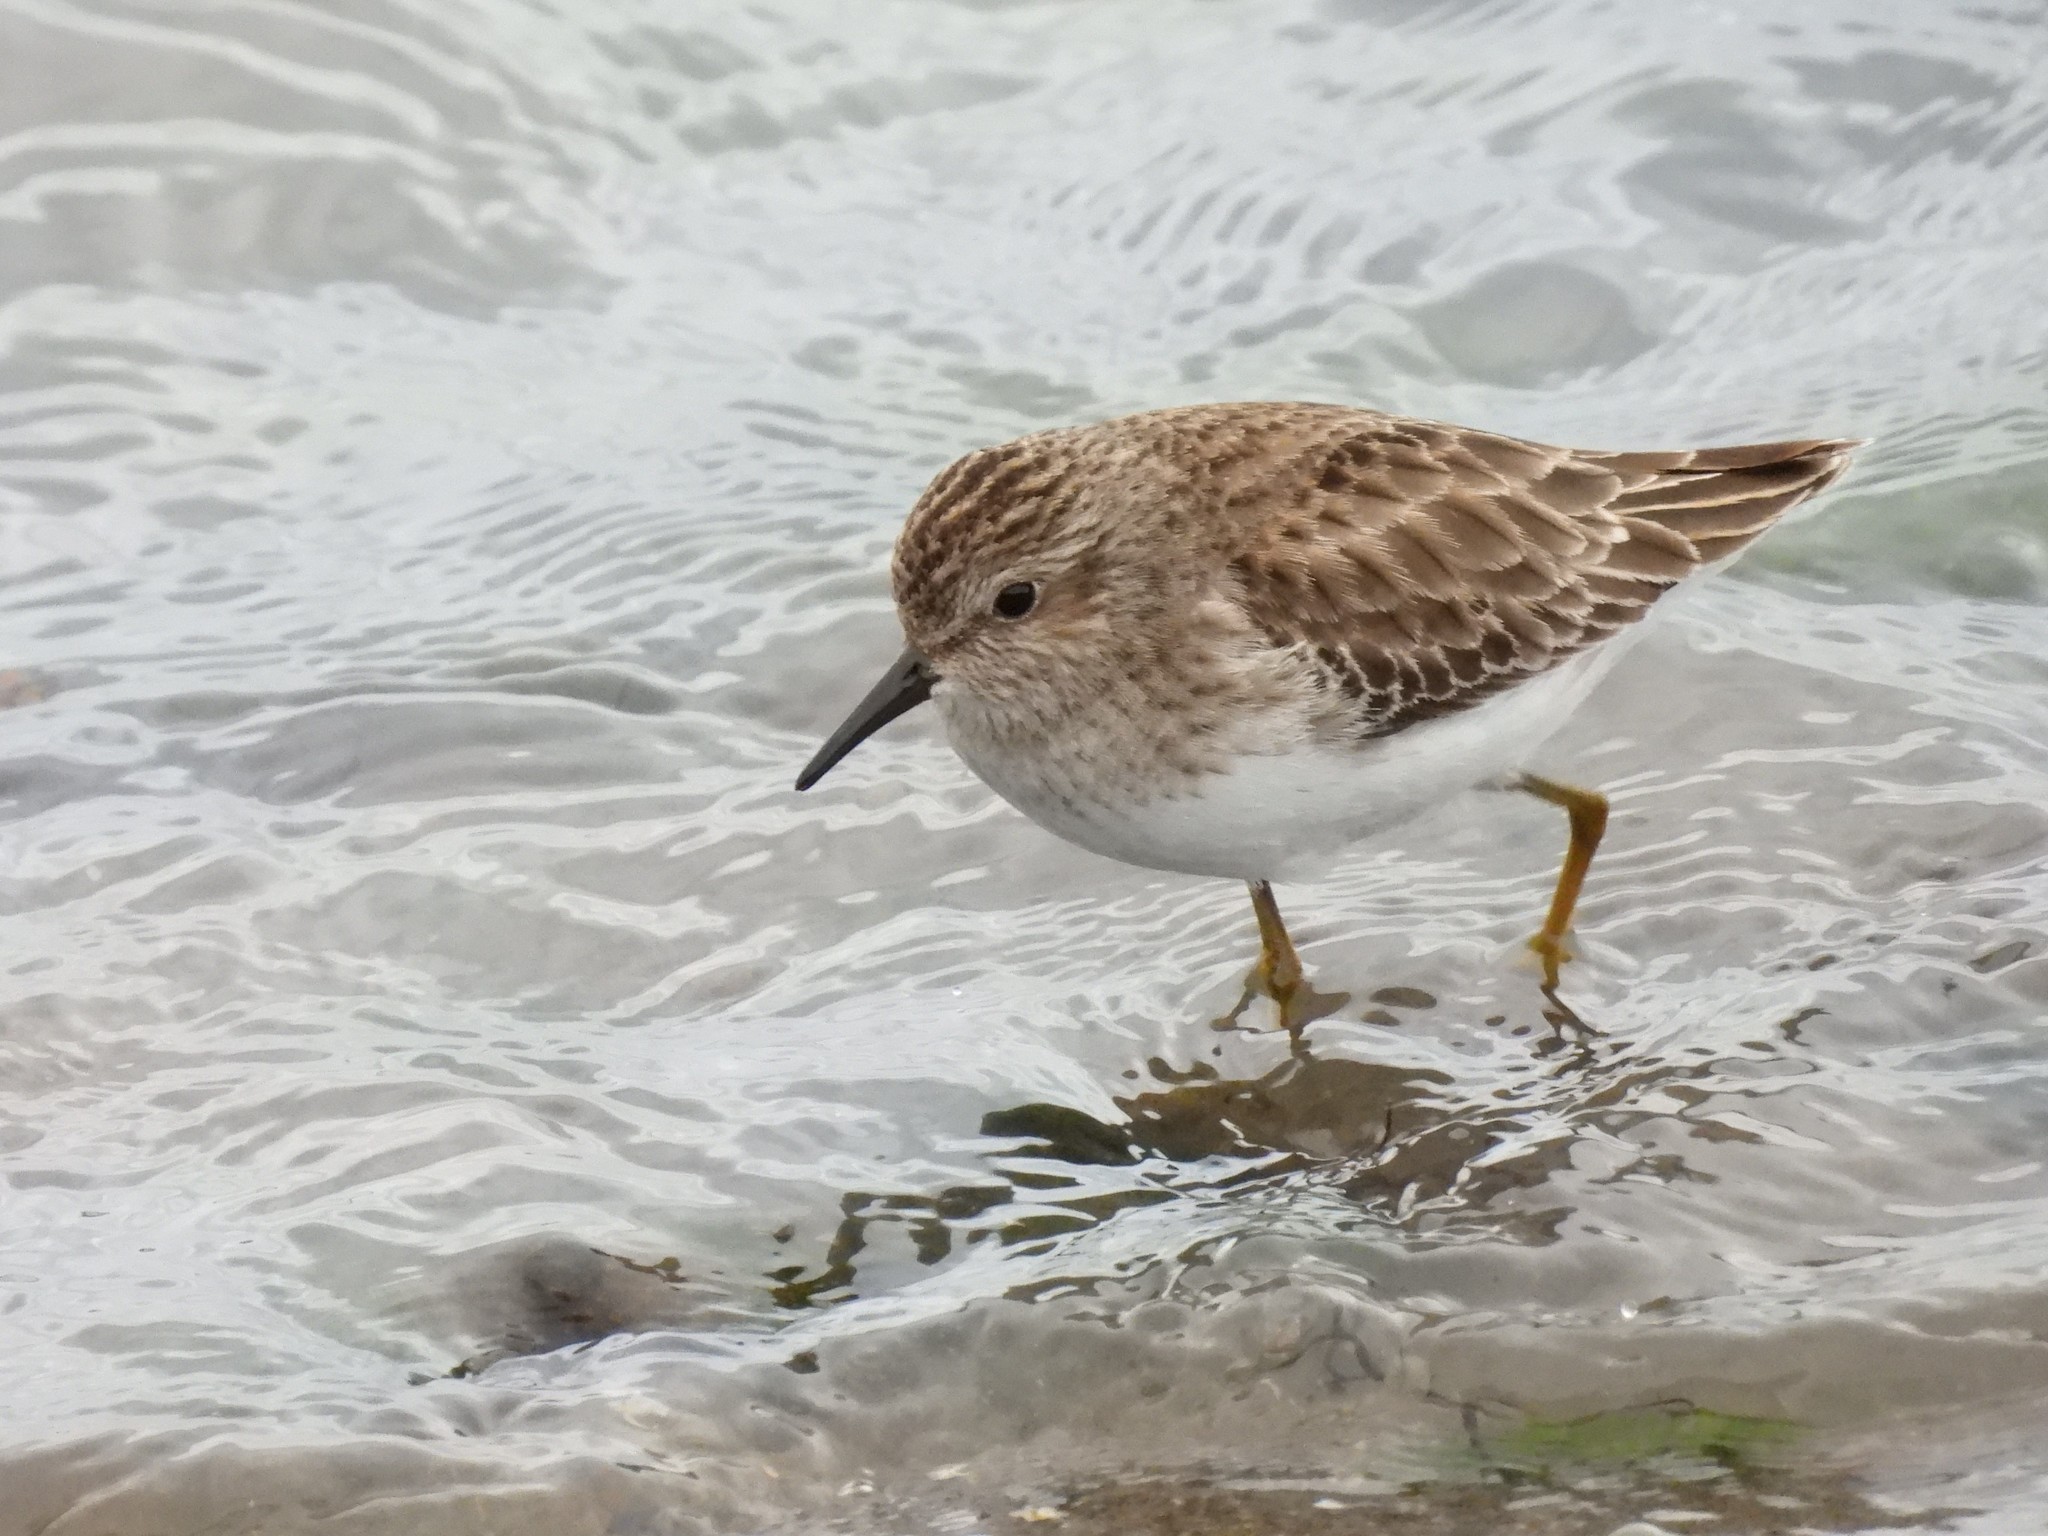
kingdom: Animalia
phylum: Chordata
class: Aves
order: Charadriiformes
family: Scolopacidae
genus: Calidris
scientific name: Calidris minutilla
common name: Least sandpiper
